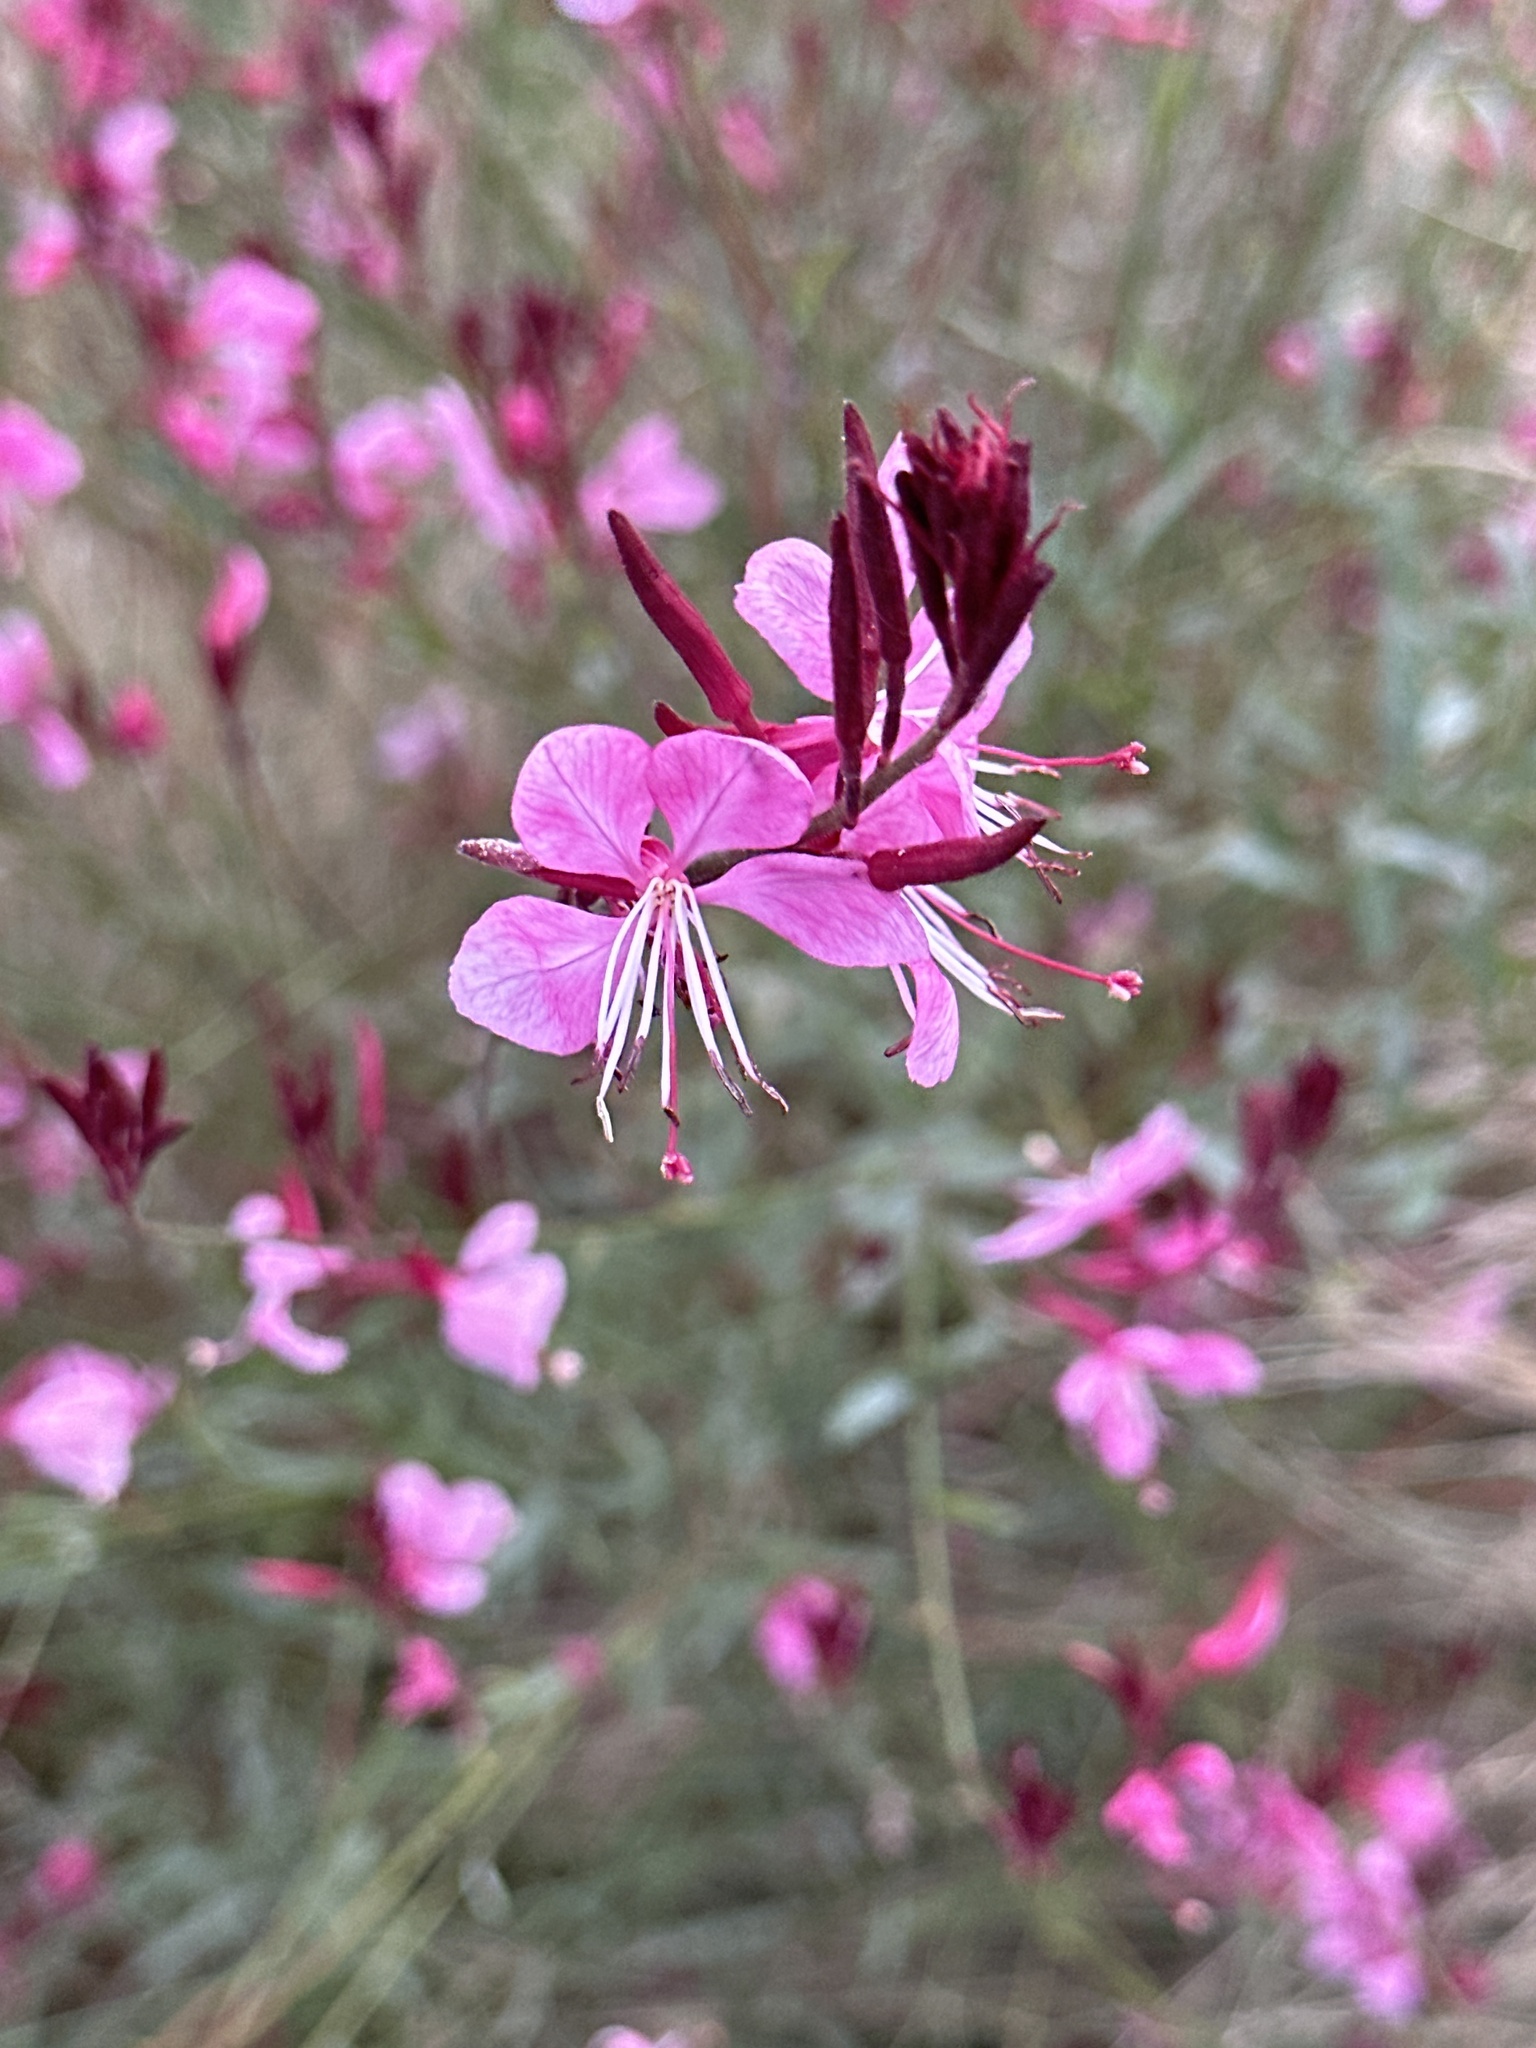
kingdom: Plantae
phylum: Tracheophyta
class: Magnoliopsida
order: Myrtales
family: Onagraceae
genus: Oenothera
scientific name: Oenothera lindheimeri
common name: Lindheimer's beeblossom
